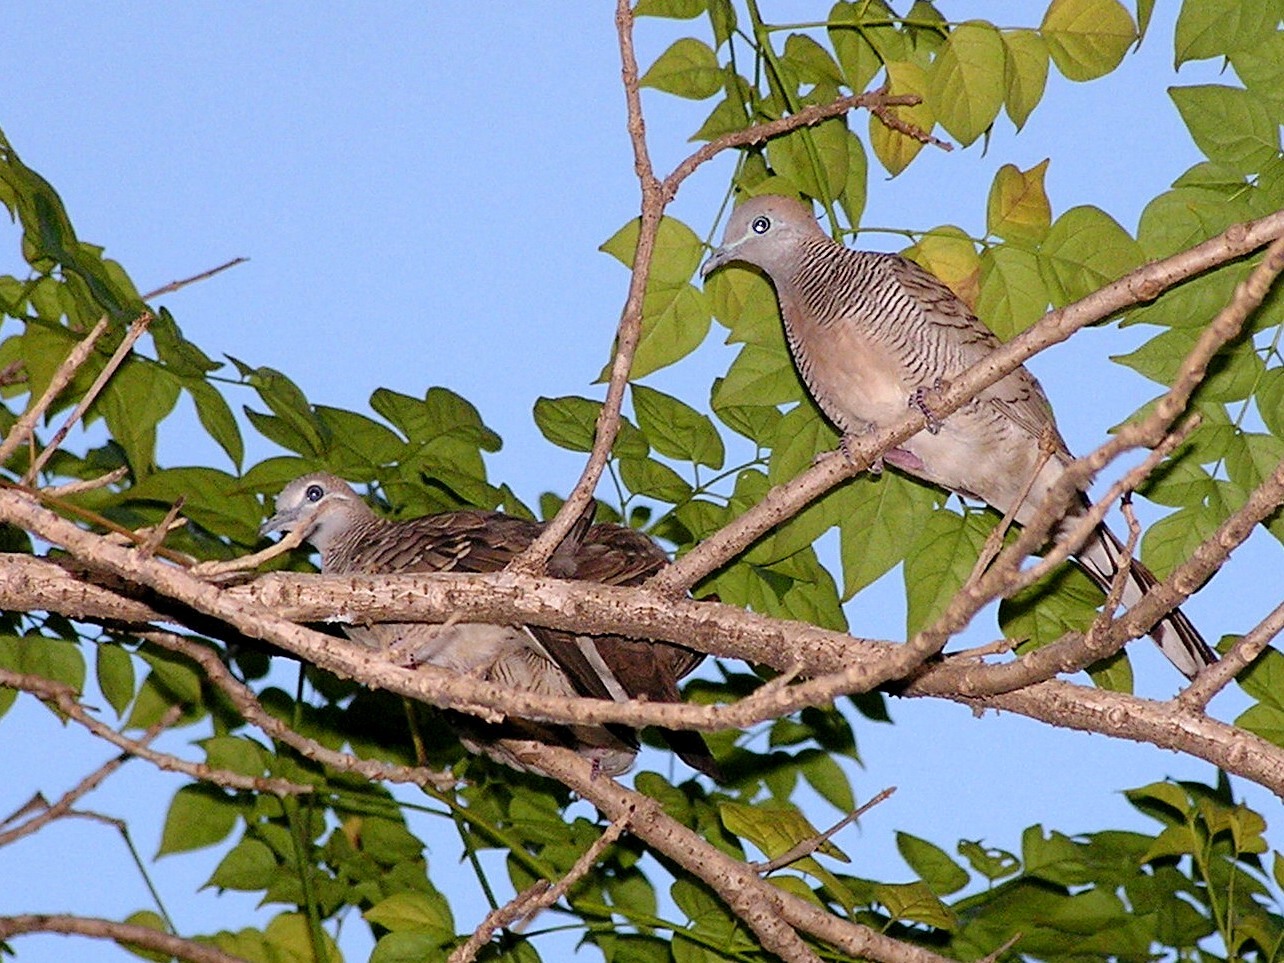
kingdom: Animalia
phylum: Chordata
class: Aves
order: Columbiformes
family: Columbidae
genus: Geopelia
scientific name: Geopelia striata
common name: Zebra dove
